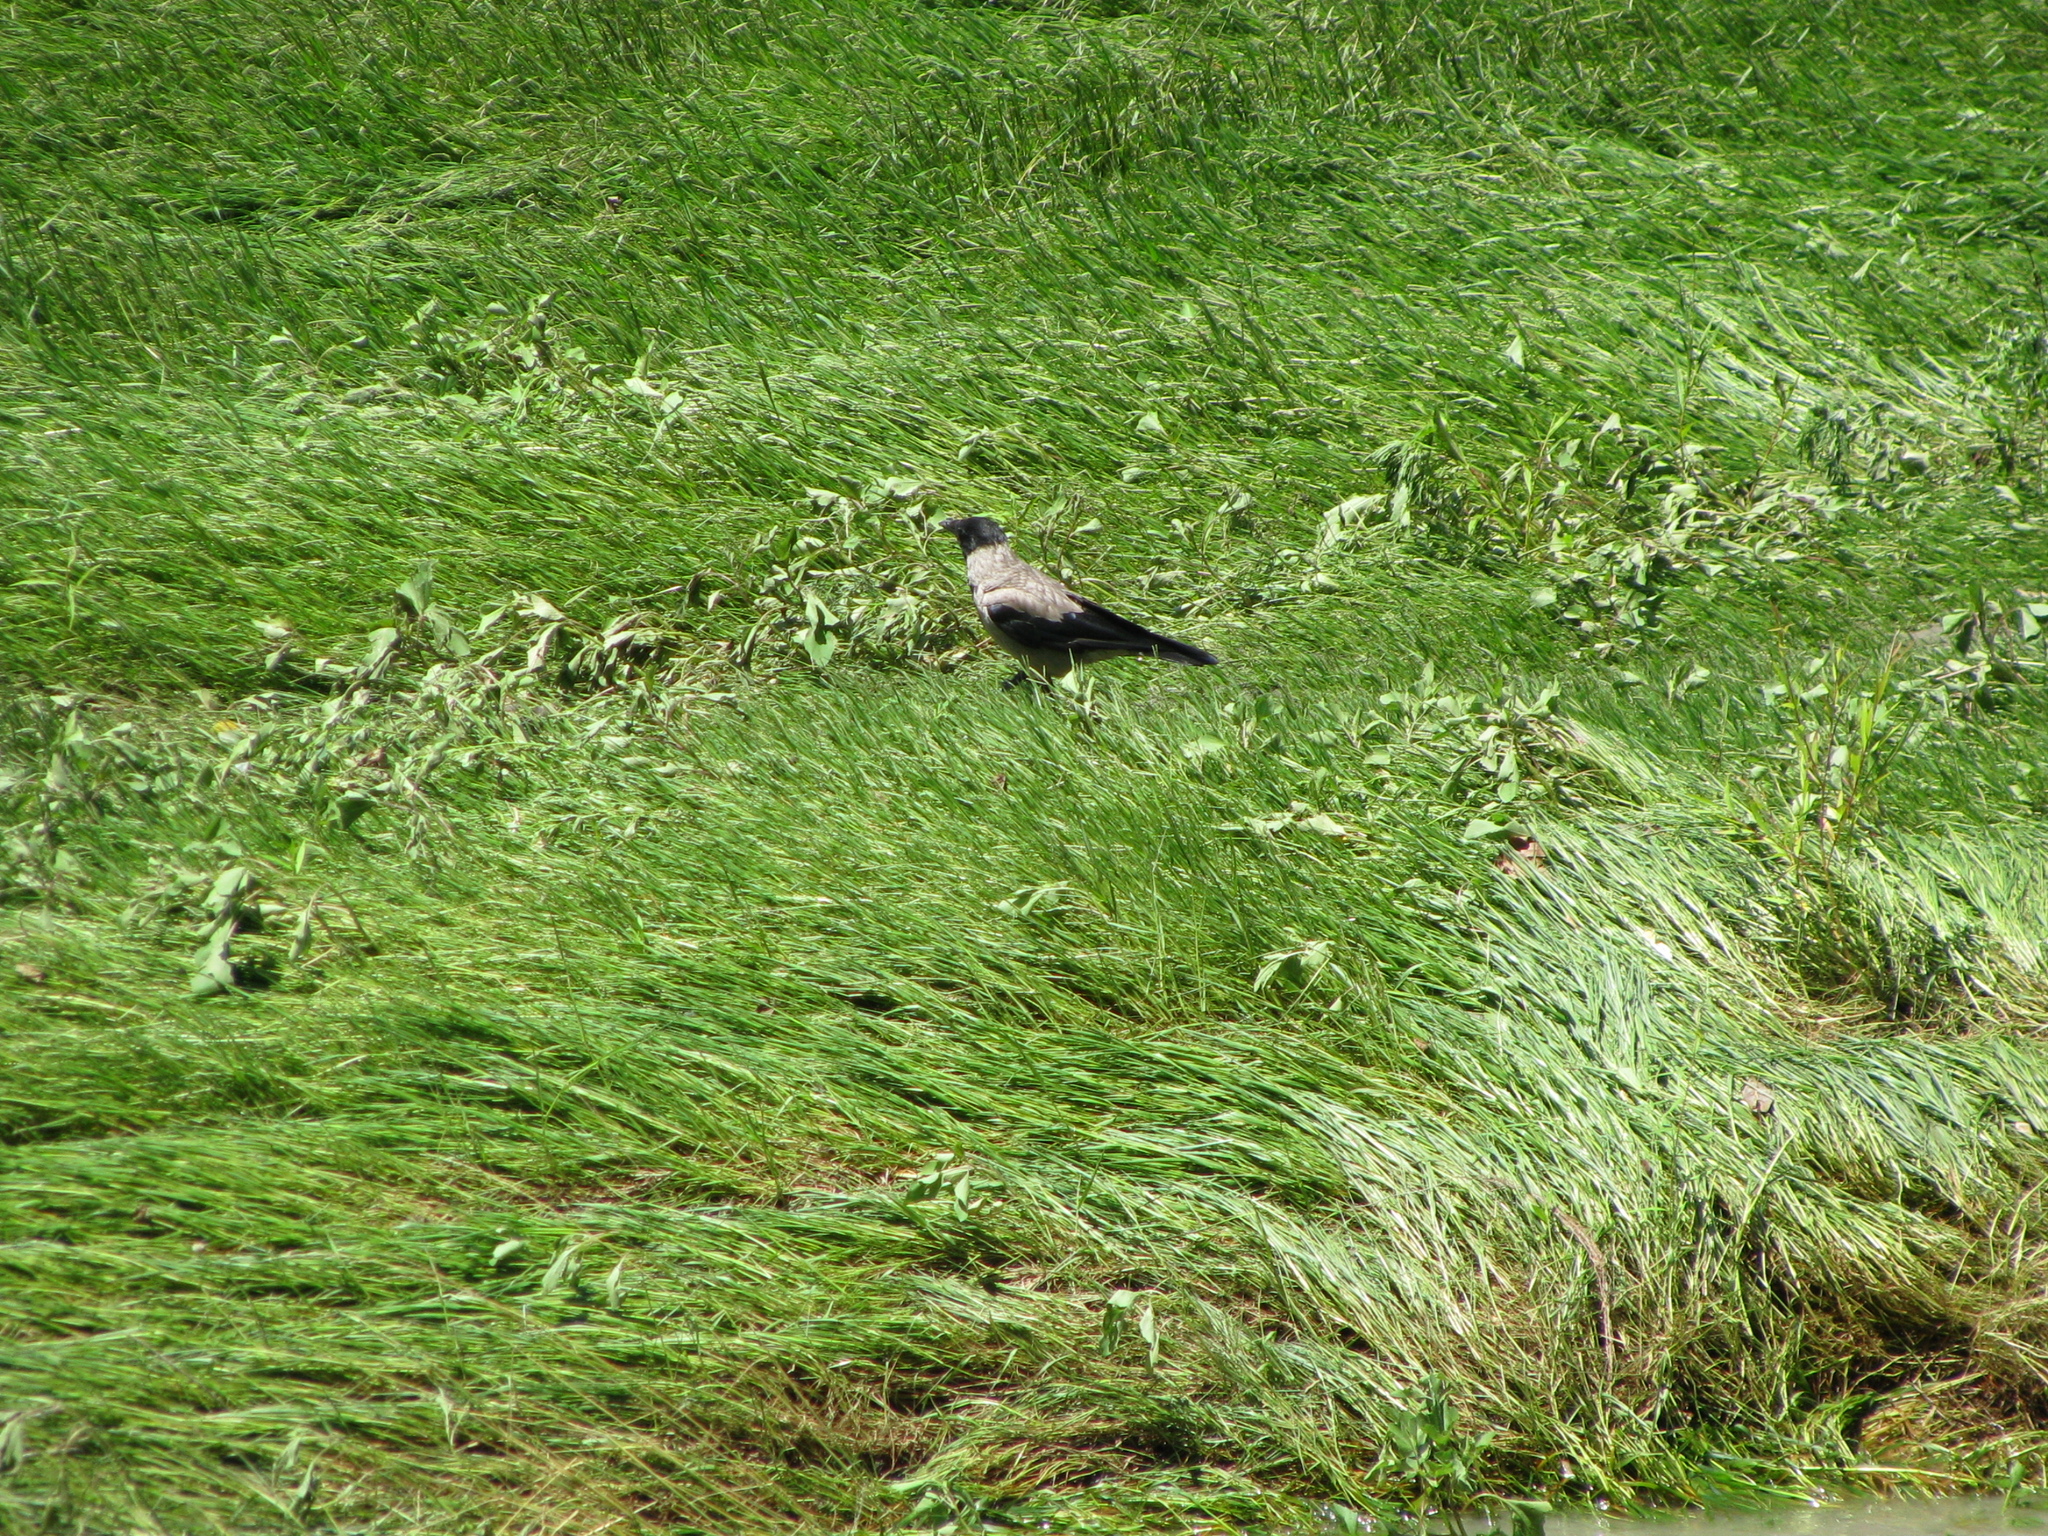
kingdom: Animalia
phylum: Chordata
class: Aves
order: Passeriformes
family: Corvidae
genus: Corvus
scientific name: Corvus cornix
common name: Hooded crow
